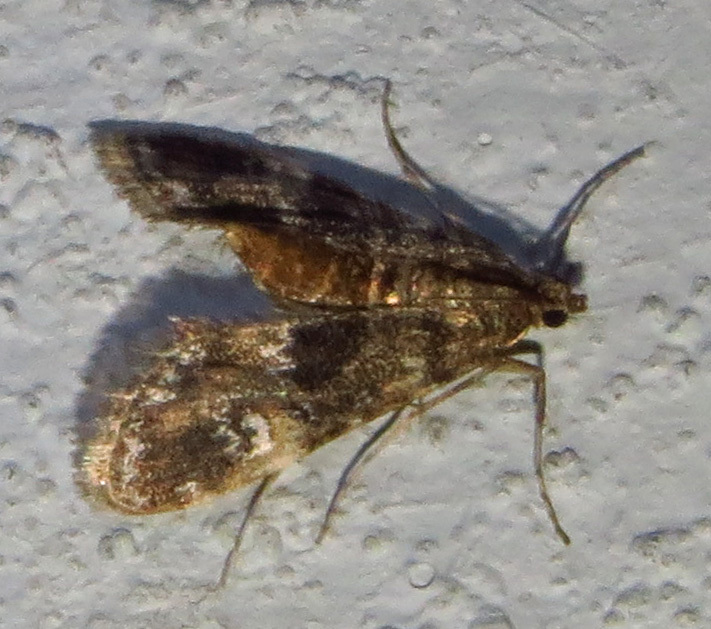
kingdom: Animalia
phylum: Arthropoda
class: Insecta
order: Lepidoptera
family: Crambidae
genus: Elophila
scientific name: Elophila obliteralis
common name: Waterlily leafcutter moth
